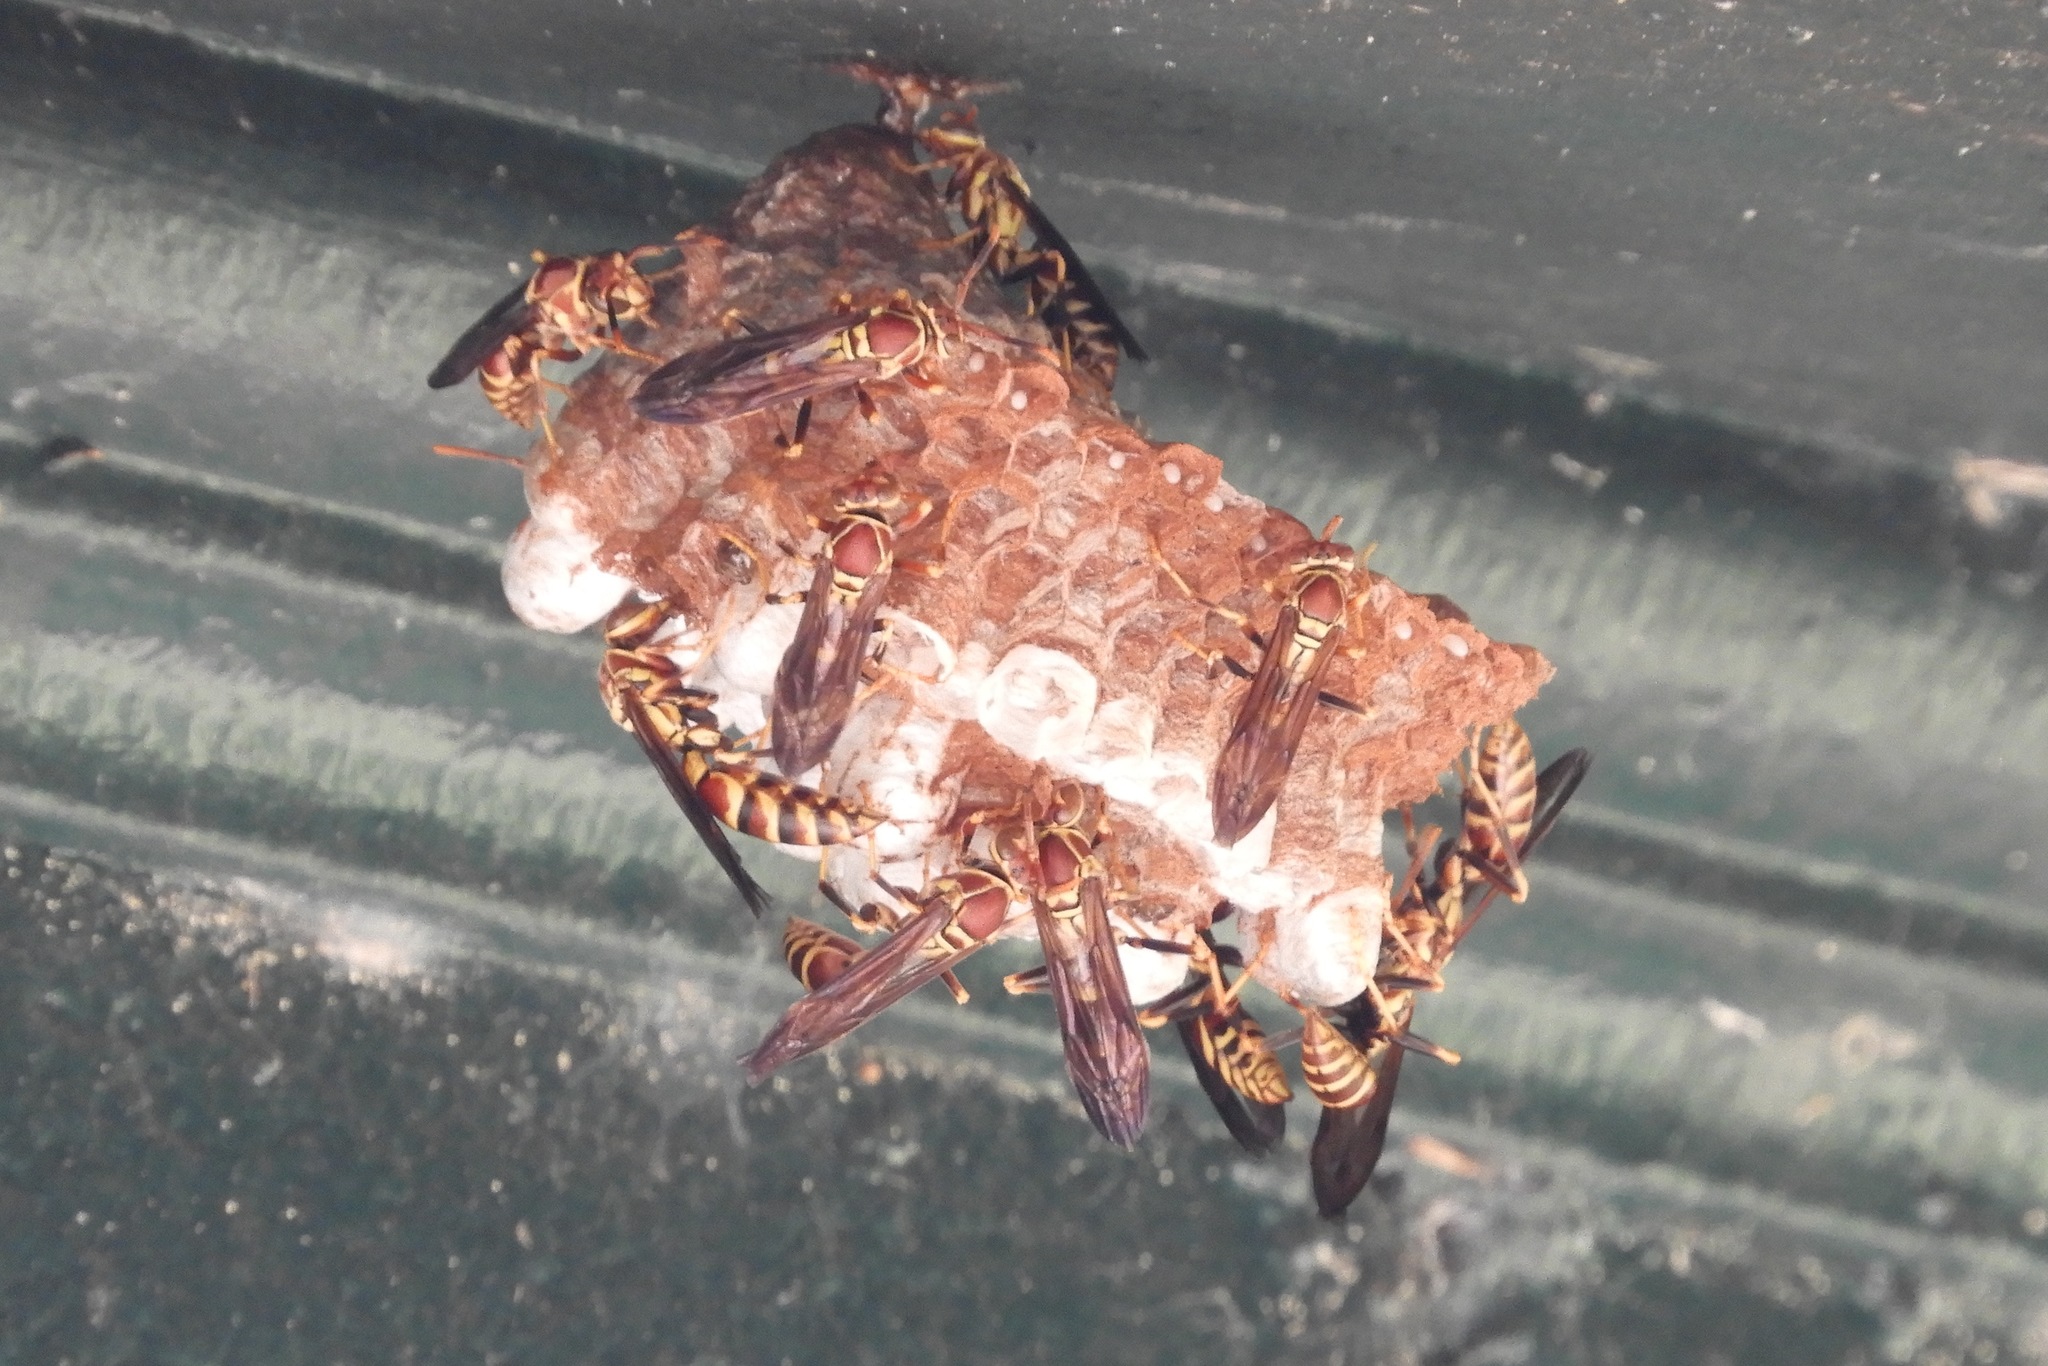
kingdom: Animalia
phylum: Arthropoda
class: Insecta
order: Hymenoptera
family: Eumenidae
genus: Polistes
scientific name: Polistes exclamans
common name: Paper wasp
